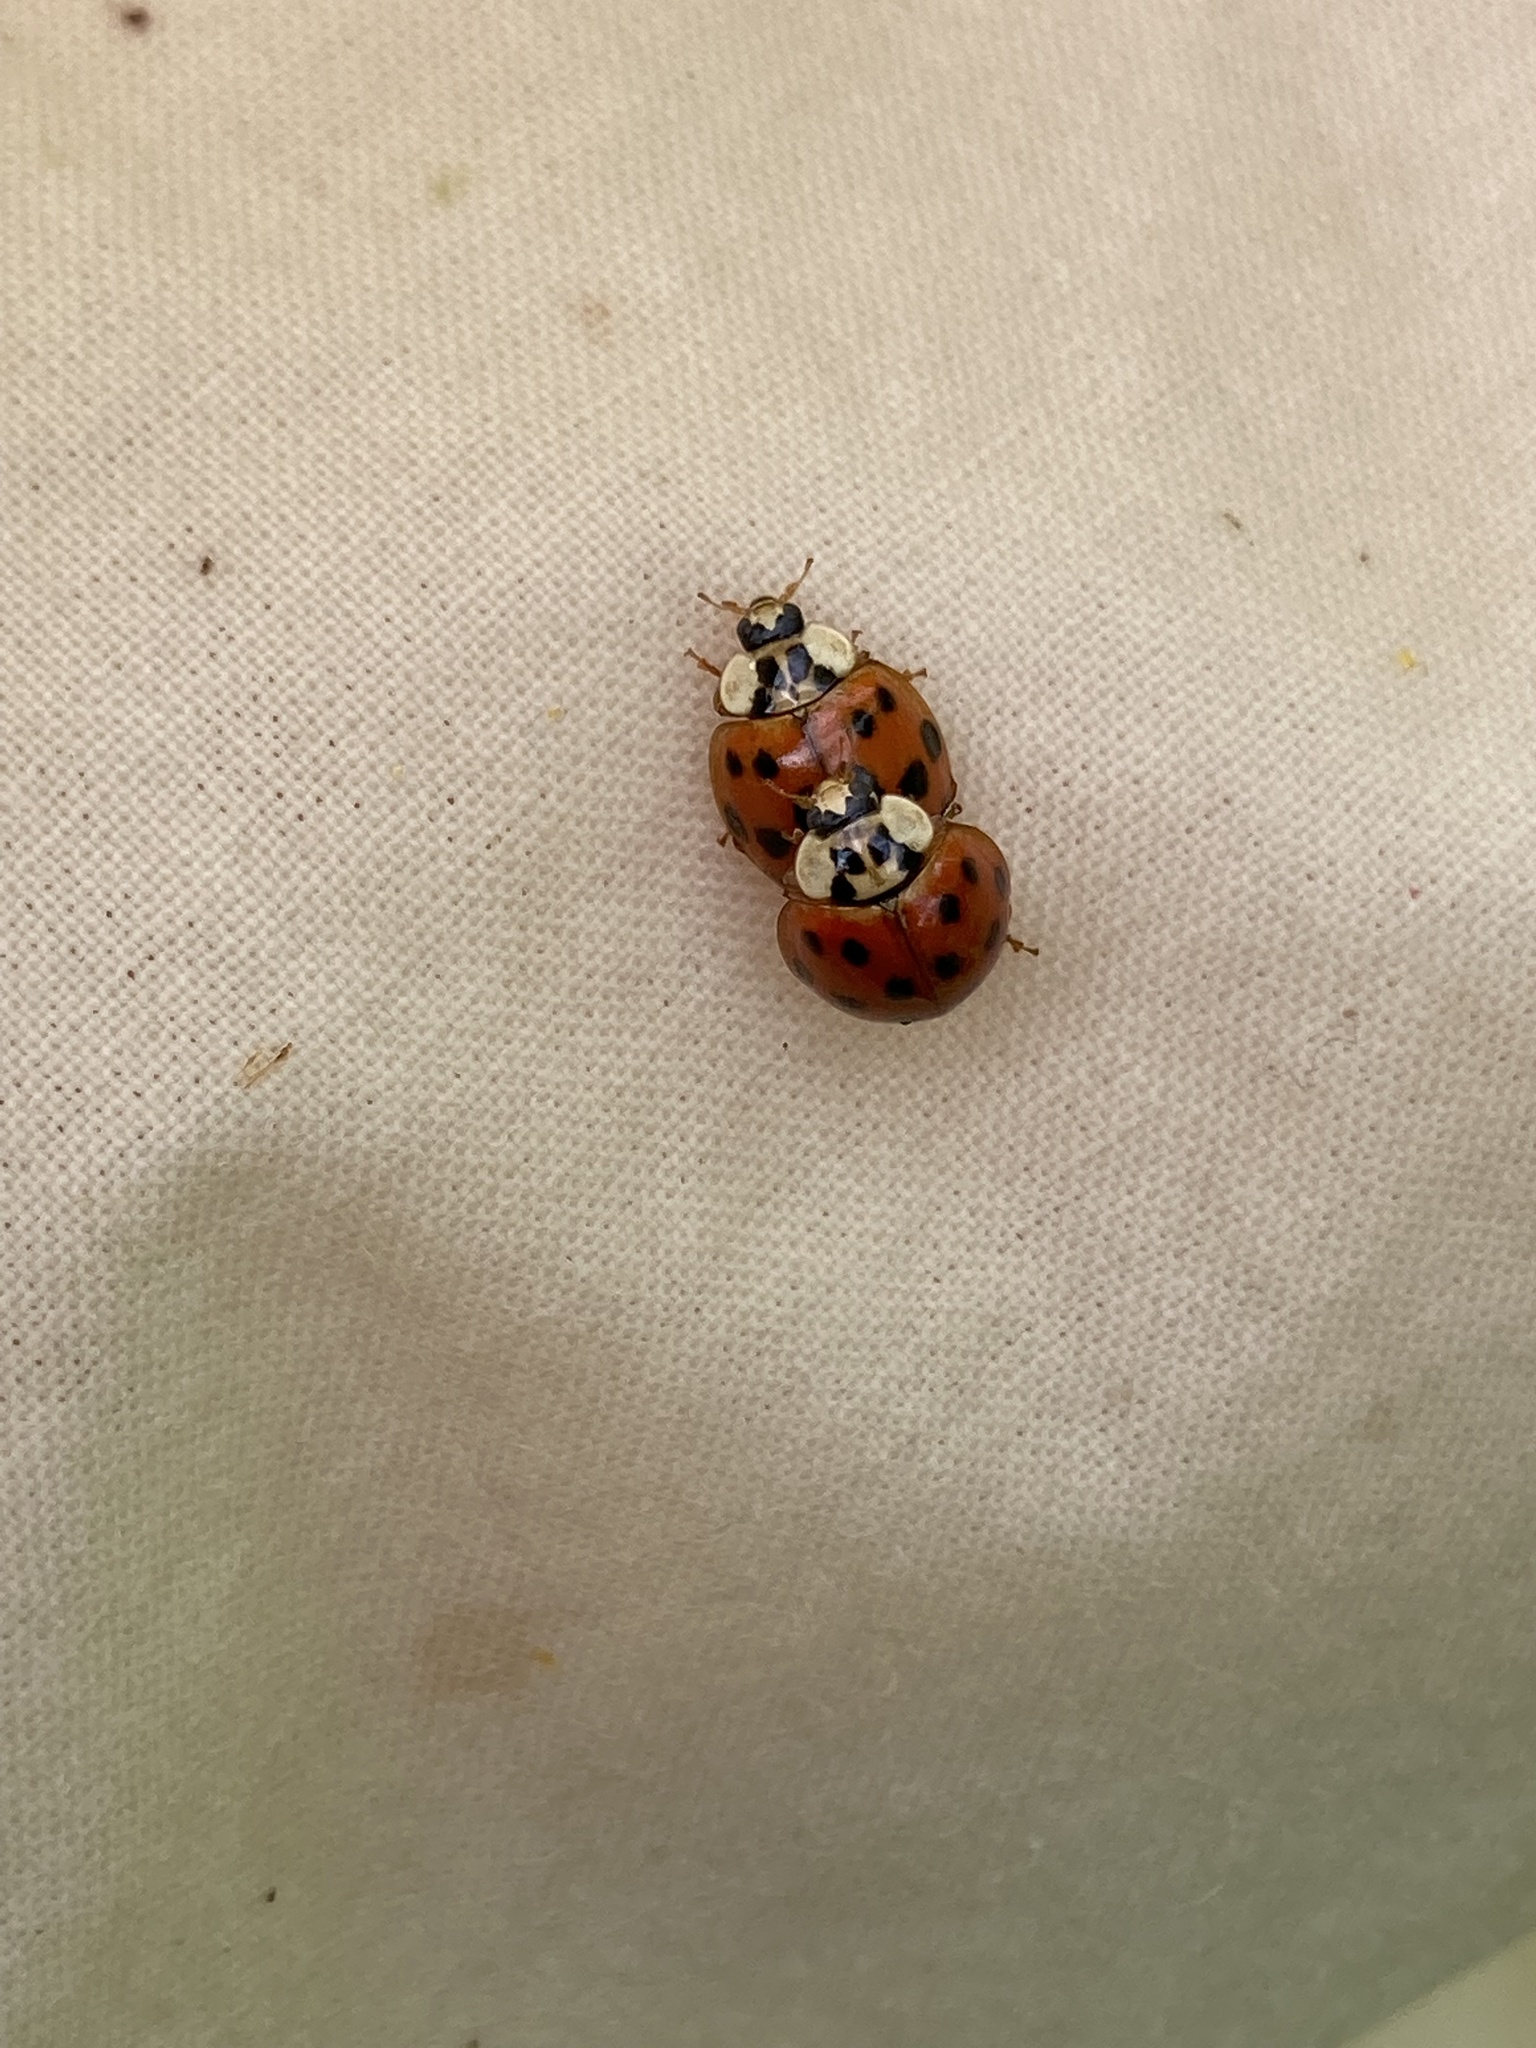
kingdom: Animalia
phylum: Arthropoda
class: Insecta
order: Coleoptera
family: Coccinellidae
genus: Harmonia
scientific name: Harmonia axyridis
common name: Harlequin ladybird
